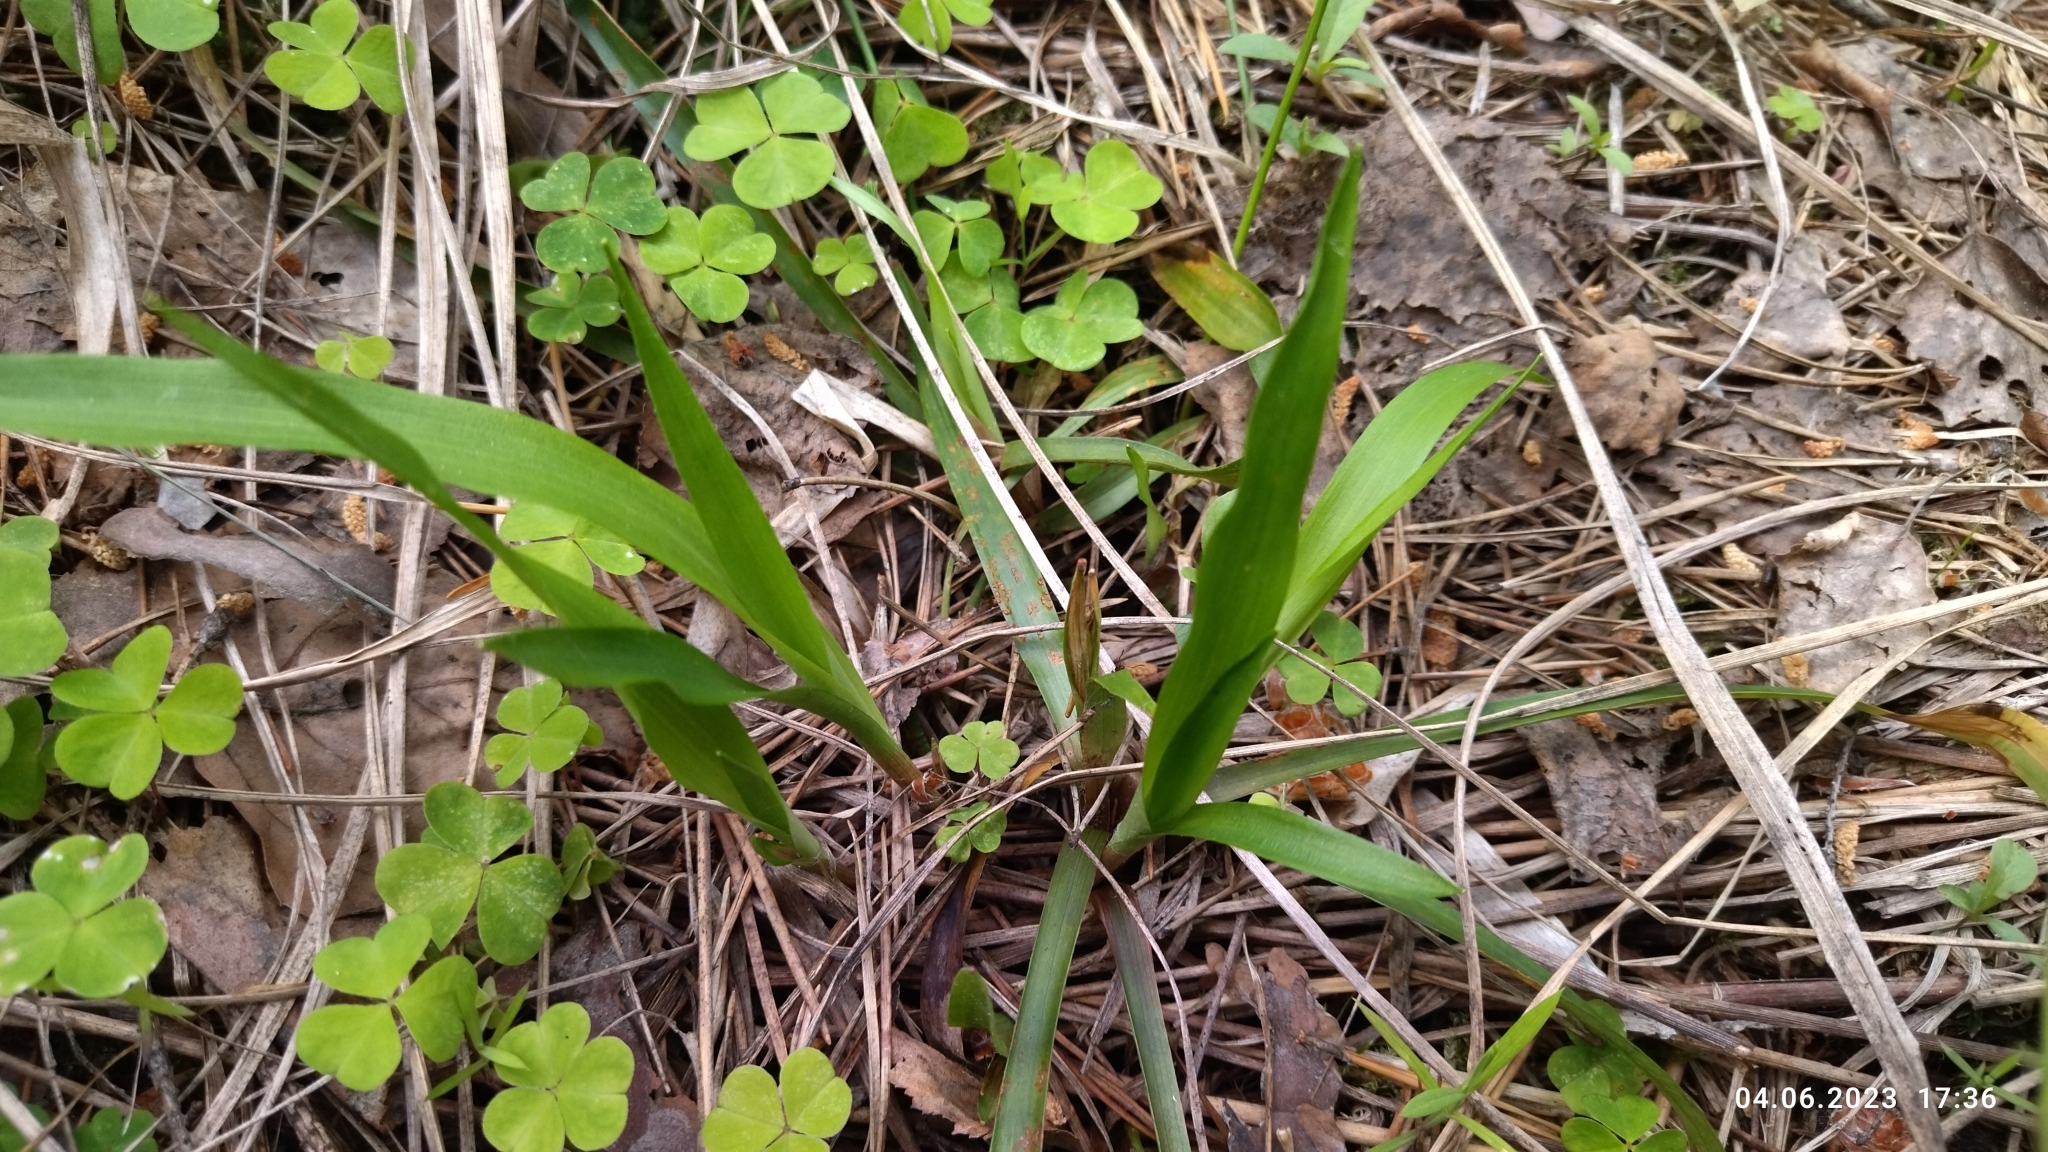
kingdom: Plantae
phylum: Tracheophyta
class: Liliopsida
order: Poales
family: Juncaceae
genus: Luzula
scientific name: Luzula pilosa
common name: Hairy wood-rush
